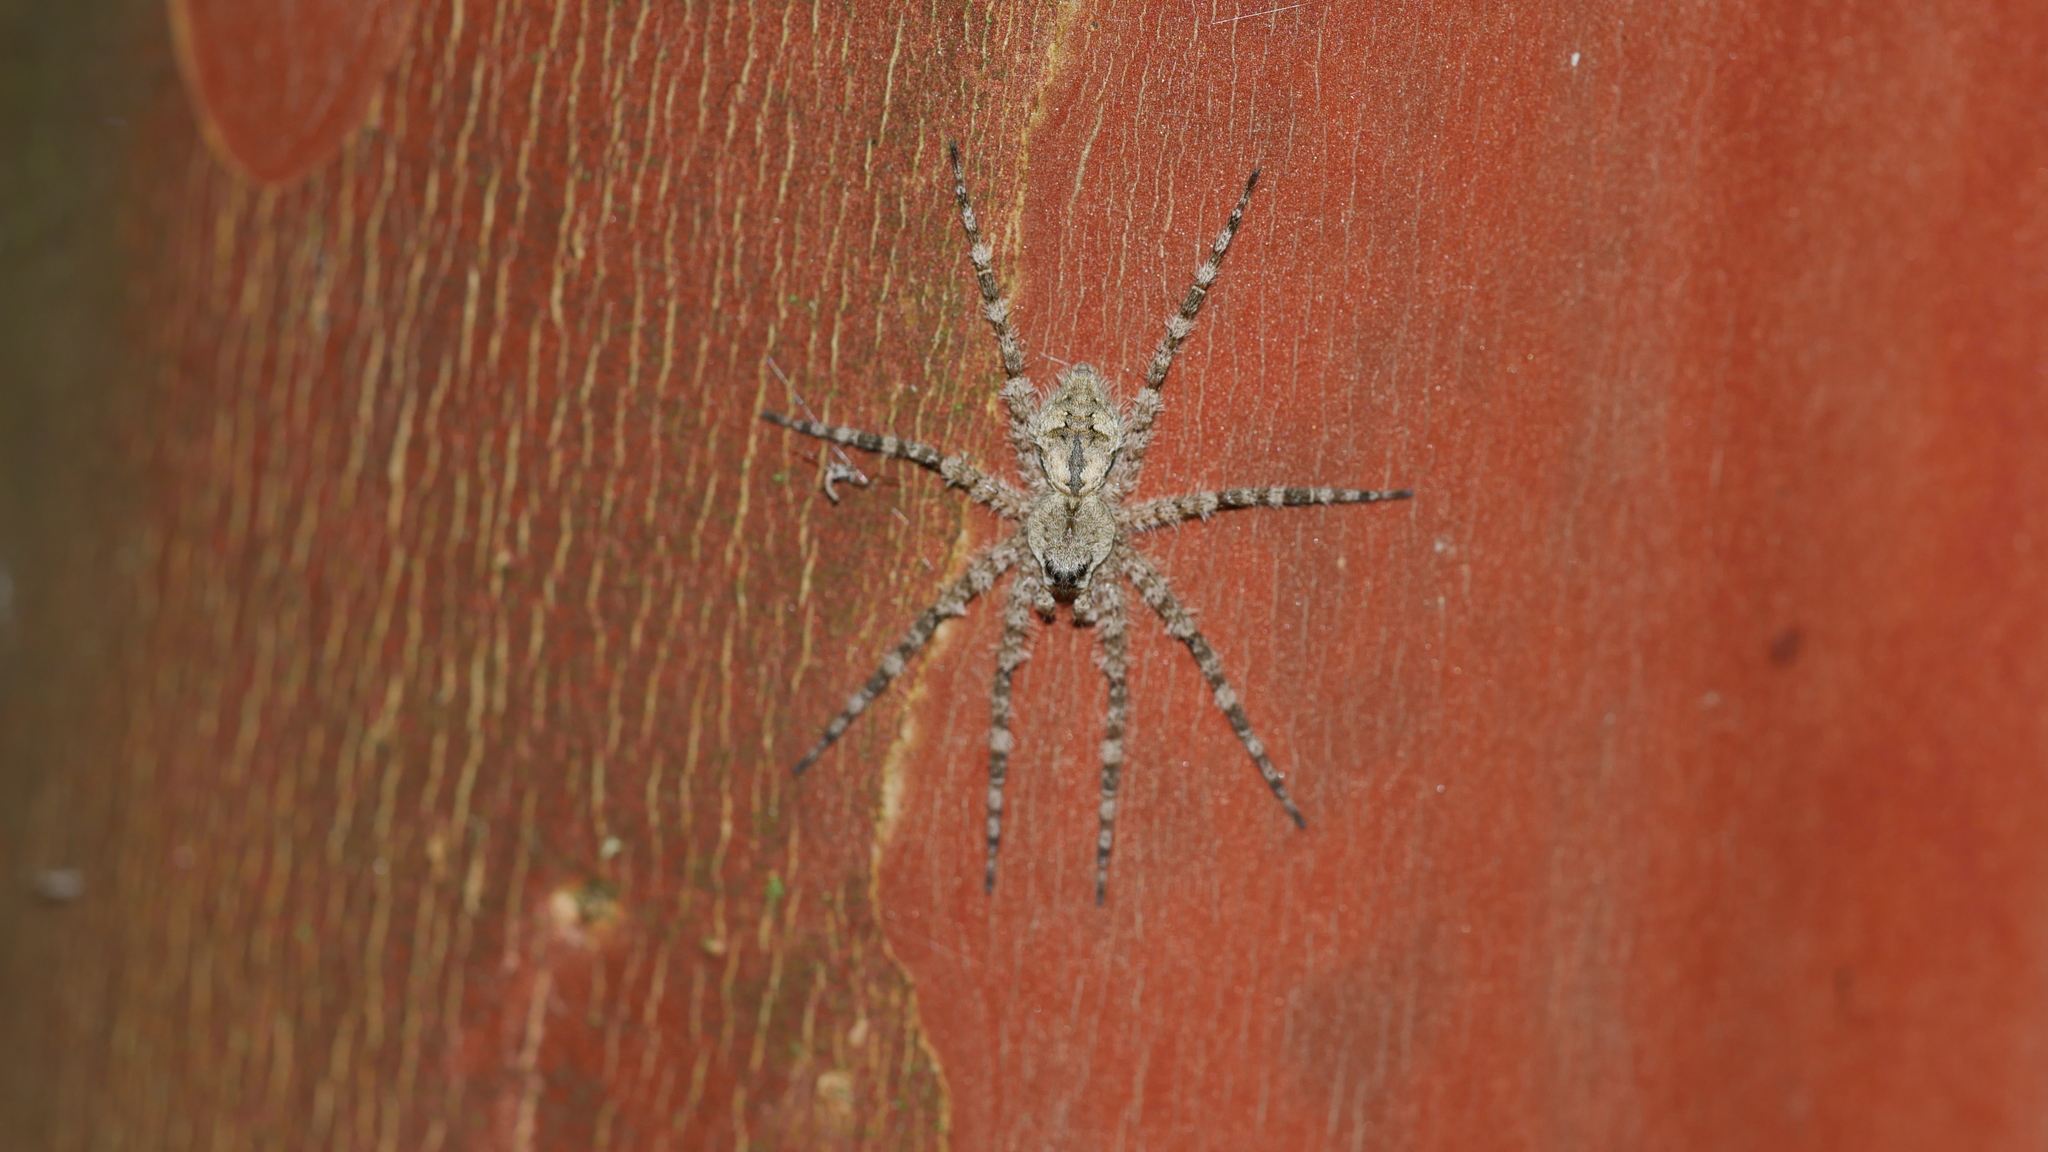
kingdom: Animalia
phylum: Arthropoda
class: Arachnida
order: Araneae
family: Pisauridae
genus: Dolomedes
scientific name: Dolomedes albineus
